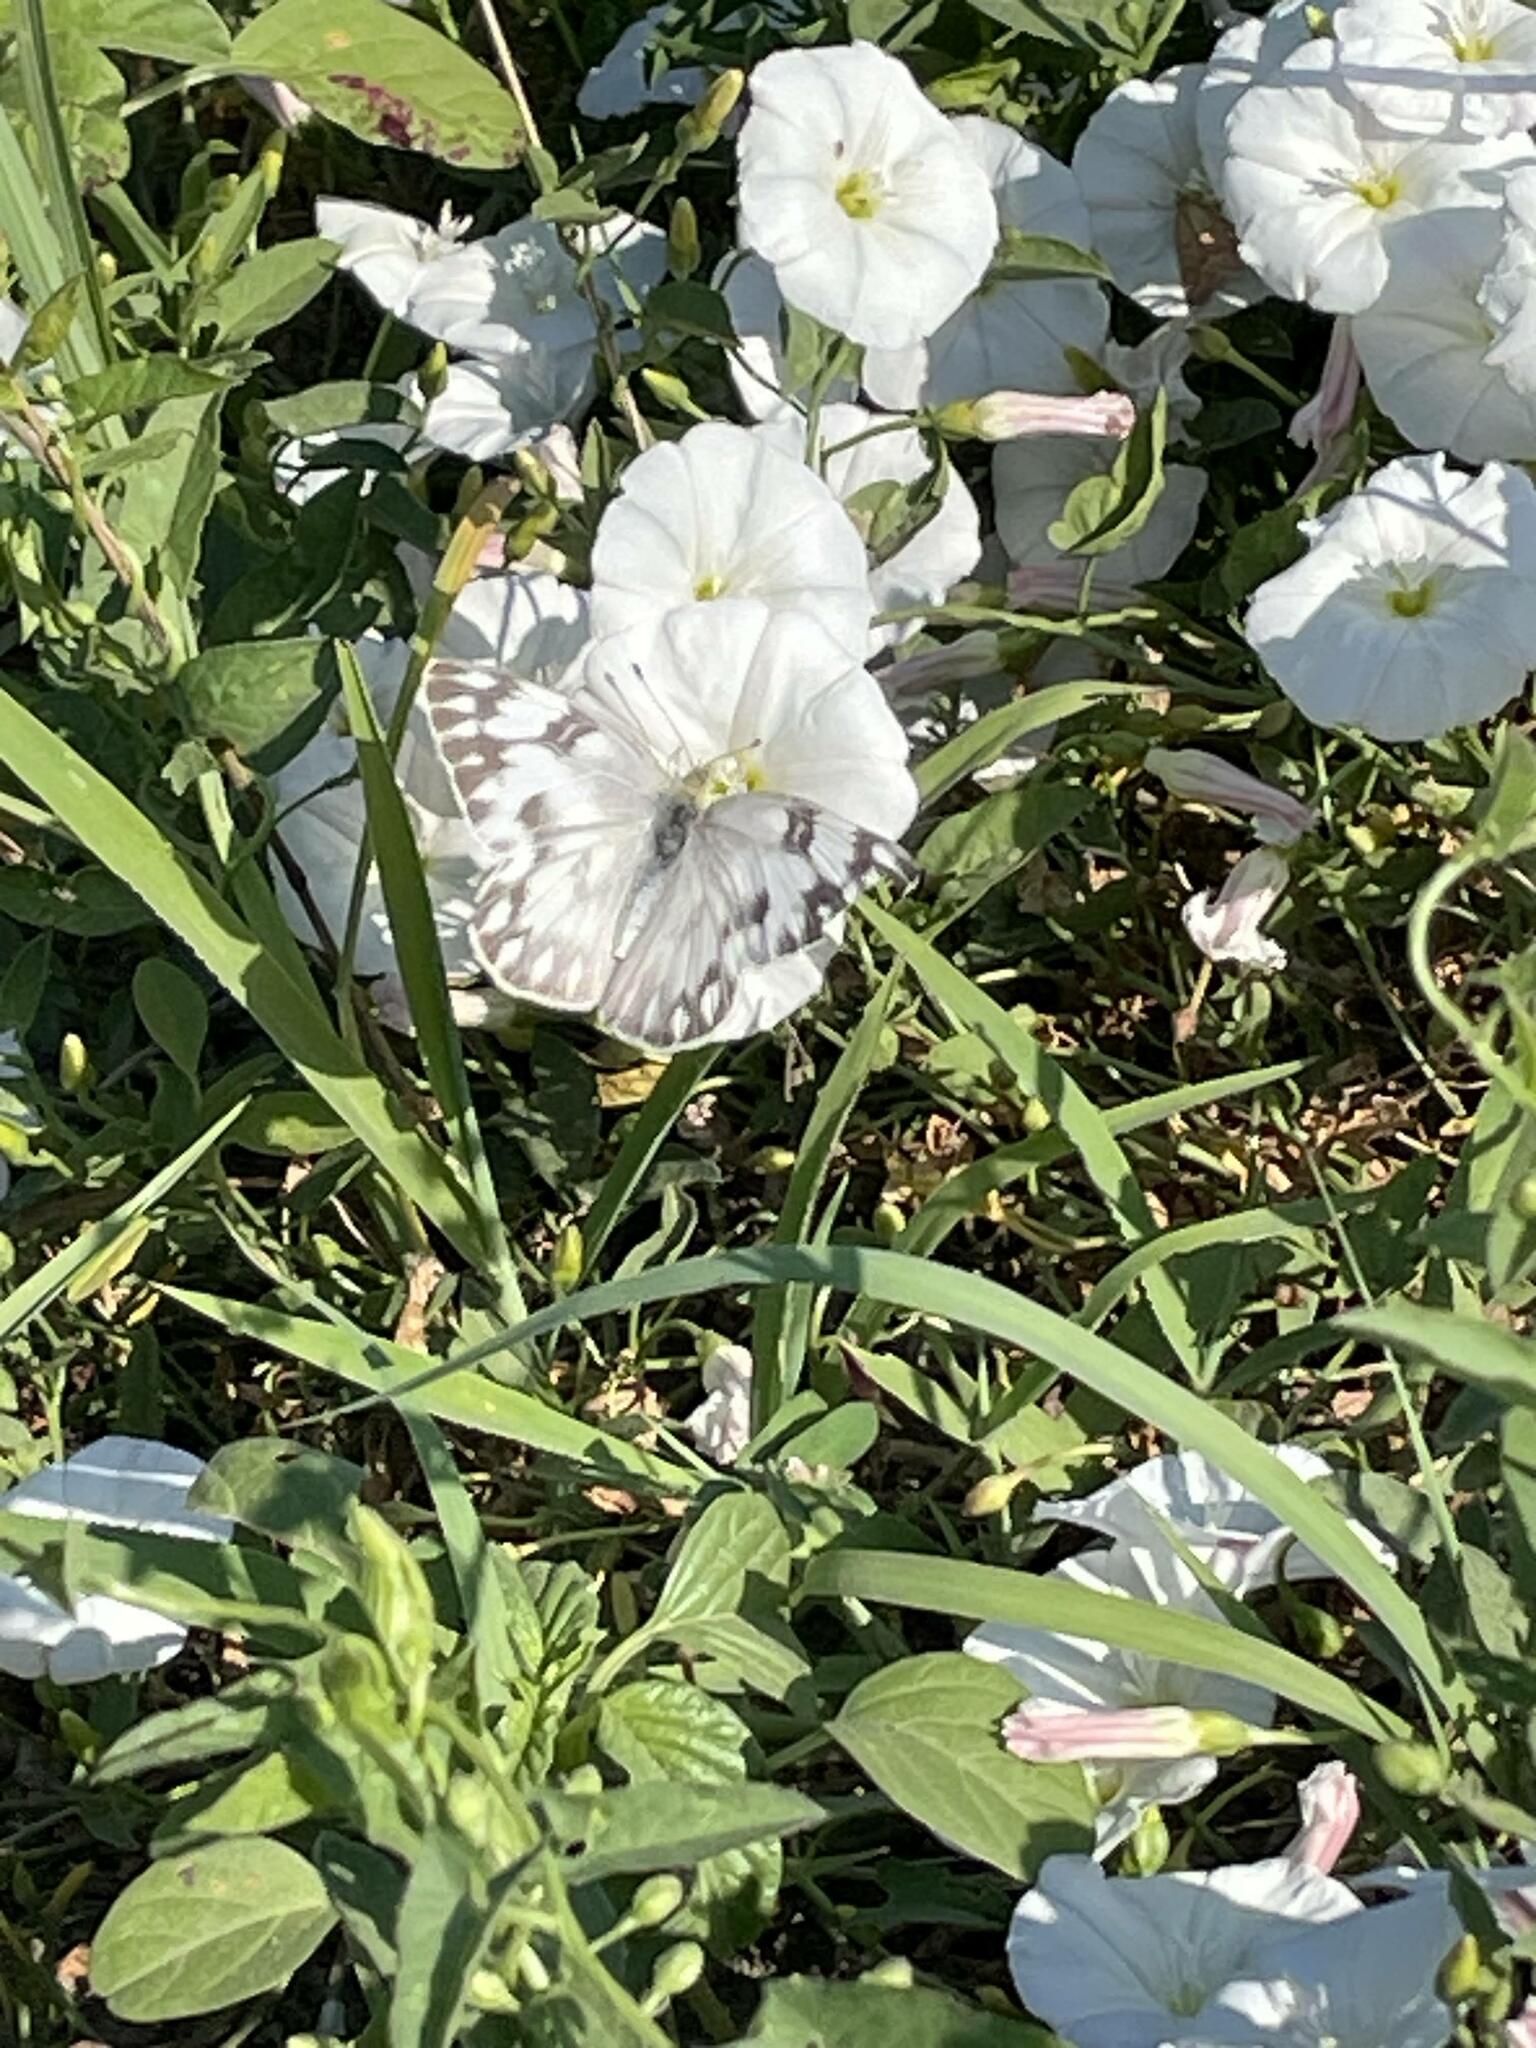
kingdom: Animalia
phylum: Arthropoda
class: Insecta
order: Lepidoptera
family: Pieridae
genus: Pontia
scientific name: Pontia protodice
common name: Checkered white
